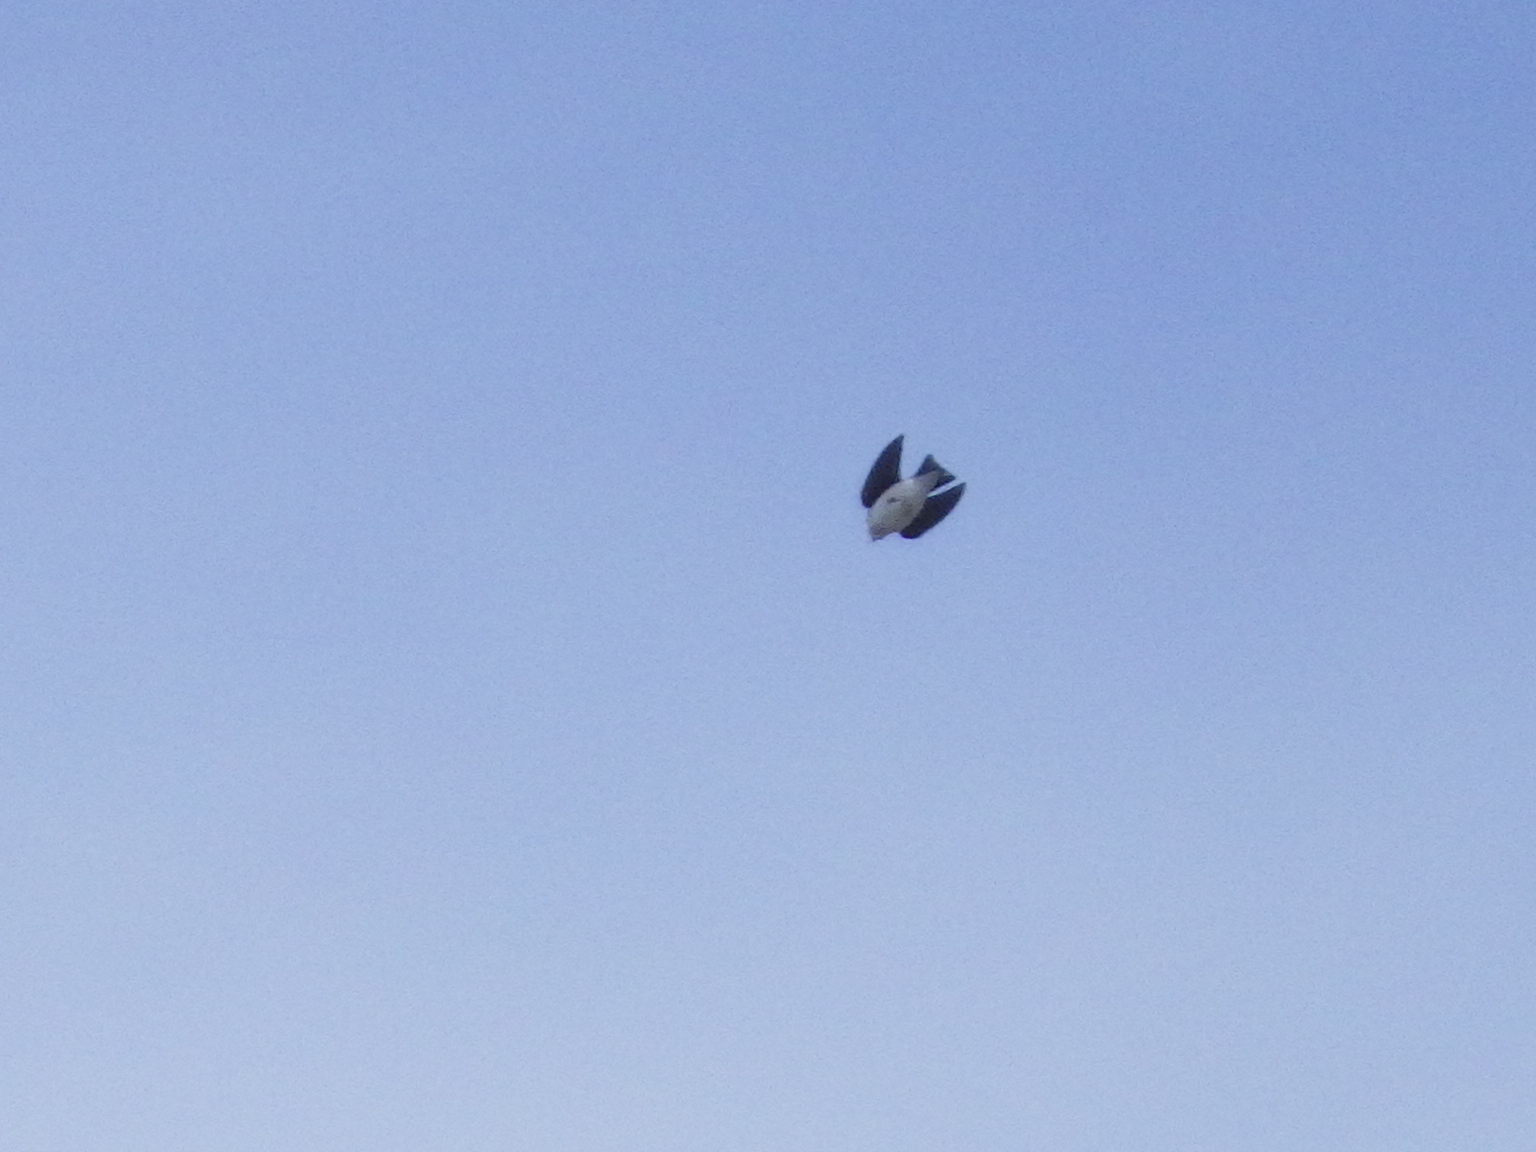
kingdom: Animalia
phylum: Chordata
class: Aves
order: Passeriformes
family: Hirundinidae
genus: Tachycineta
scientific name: Tachycineta bicolor
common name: Tree swallow
